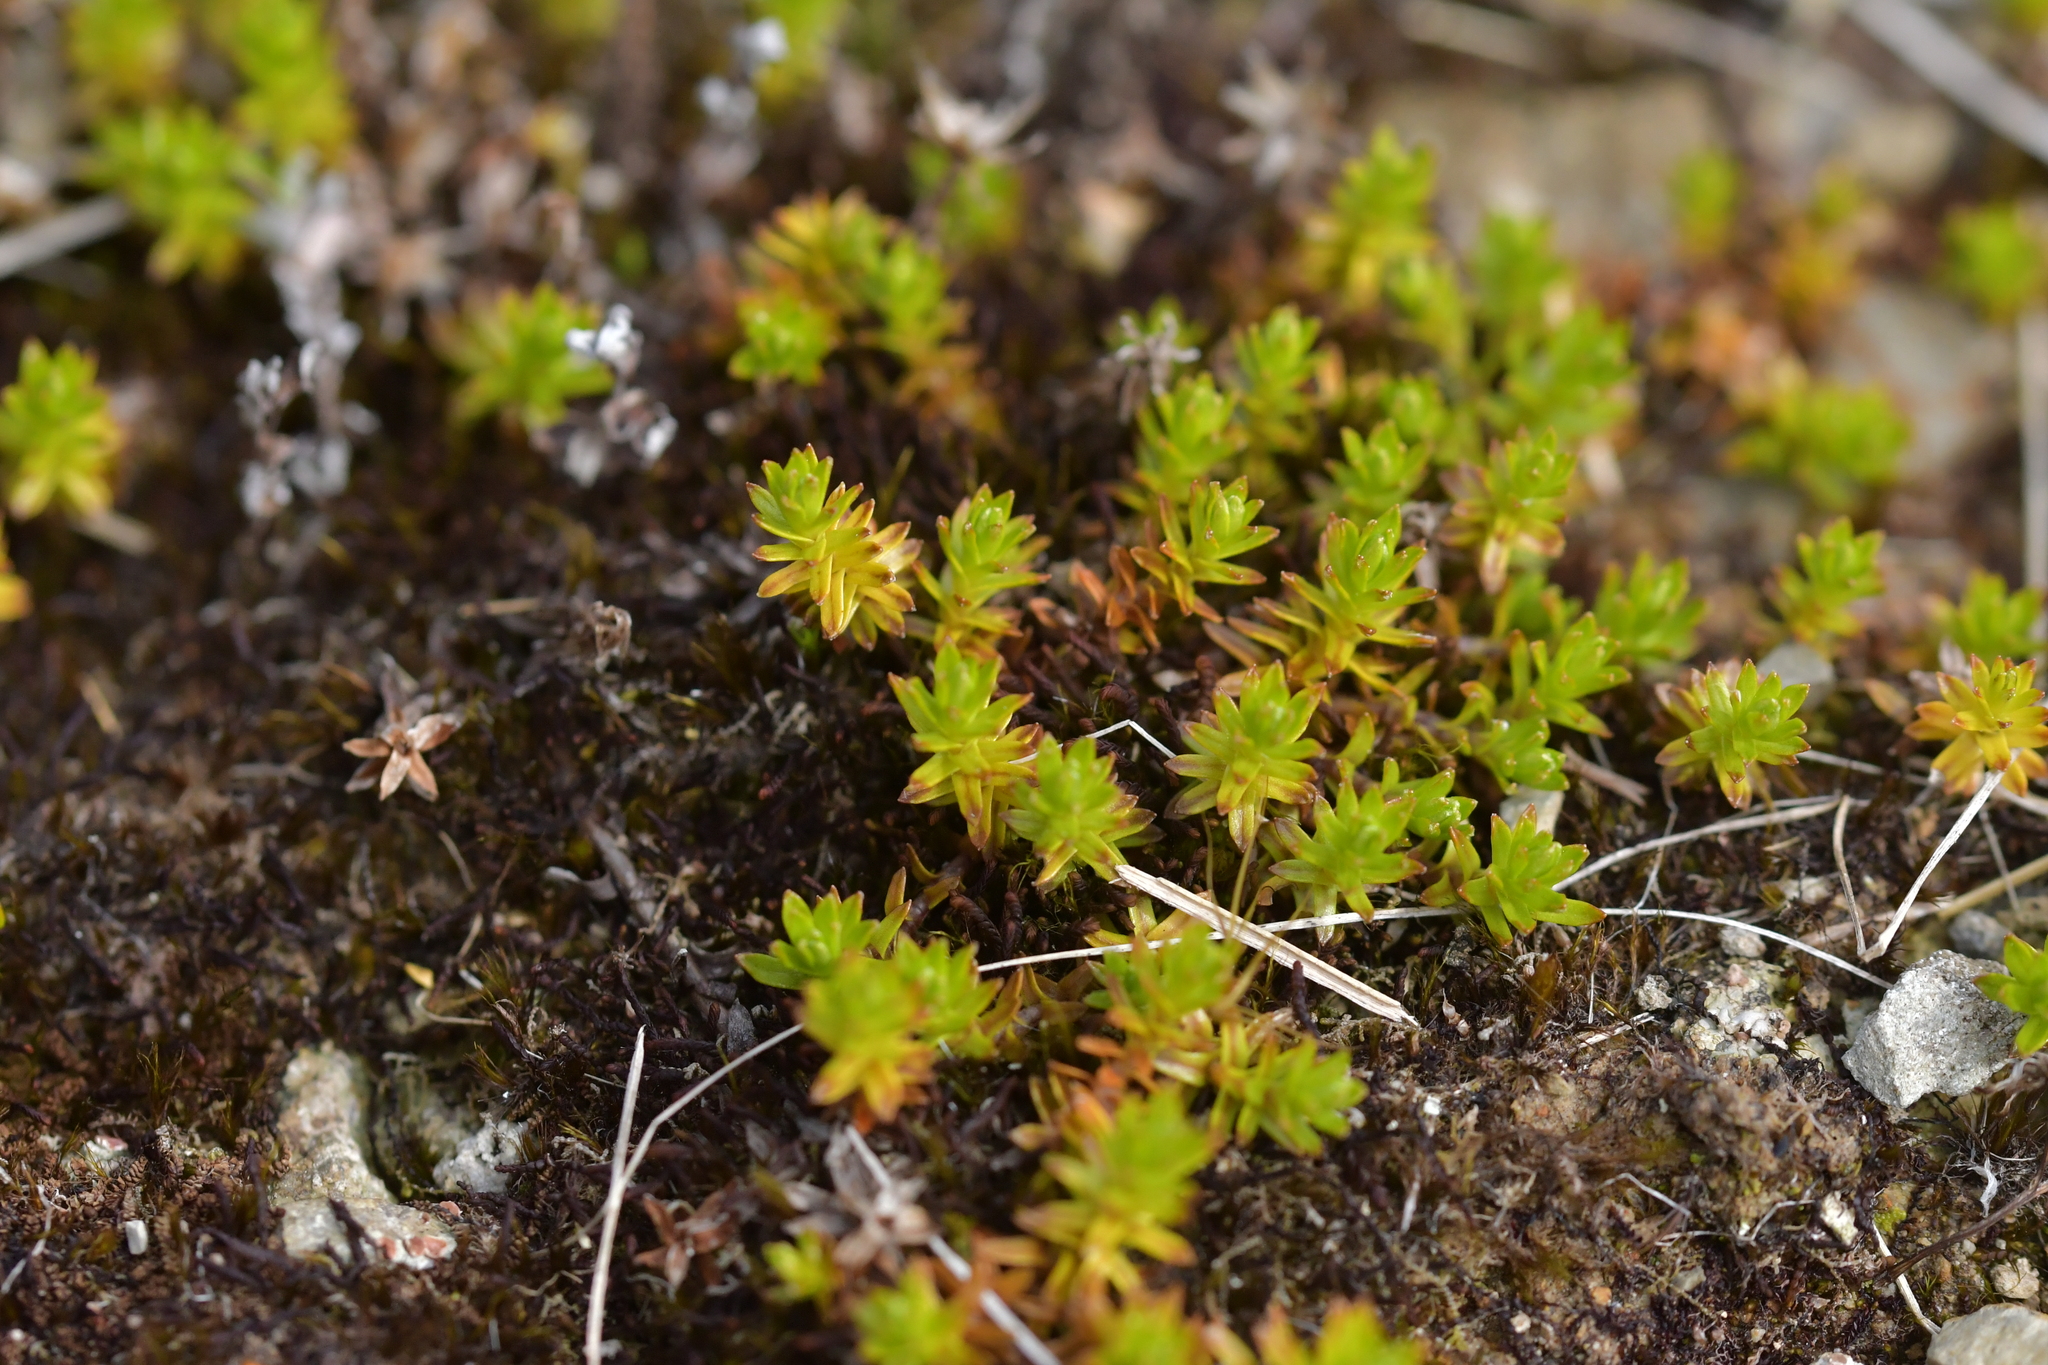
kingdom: Plantae
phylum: Tracheophyta
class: Magnoliopsida
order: Asterales
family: Asteraceae
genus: Raoulia
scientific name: Raoulia glabra
